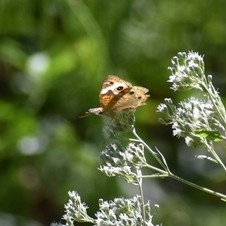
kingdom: Animalia
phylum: Arthropoda
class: Insecta
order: Lepidoptera
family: Nymphalidae
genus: Junonia
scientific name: Junonia coenia
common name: Common buckeye
